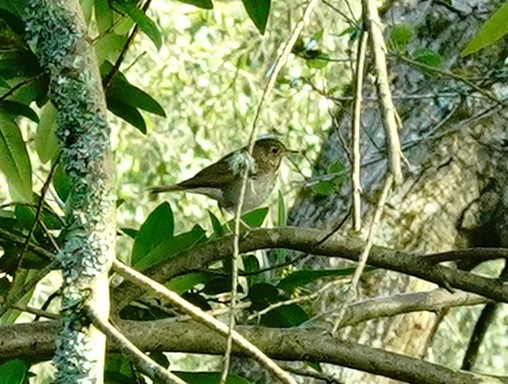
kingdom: Animalia
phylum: Chordata
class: Aves
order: Passeriformes
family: Turdidae
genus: Catharus
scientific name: Catharus guttatus
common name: Hermit thrush
